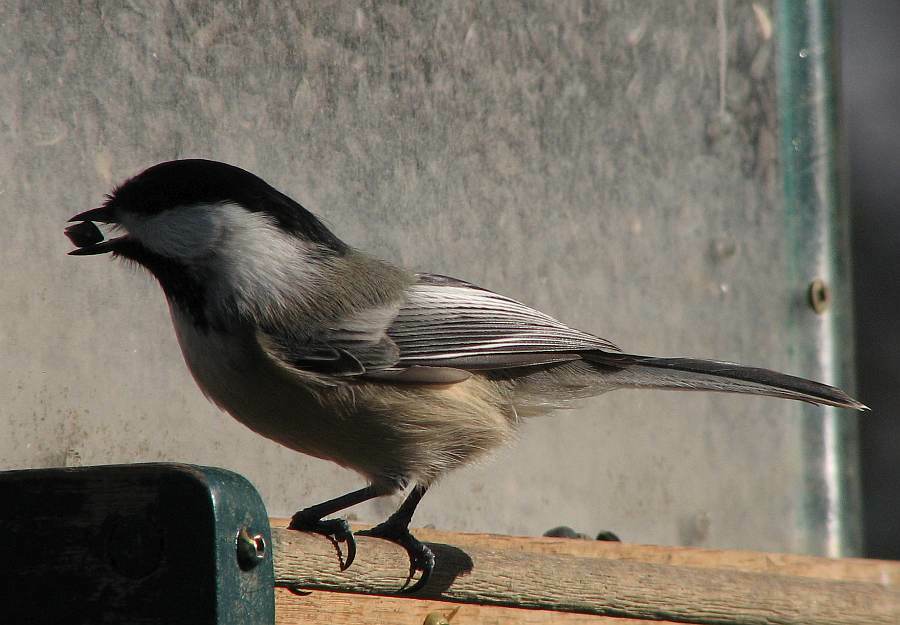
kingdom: Animalia
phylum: Chordata
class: Aves
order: Passeriformes
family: Paridae
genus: Poecile
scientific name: Poecile atricapillus
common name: Black-capped chickadee
